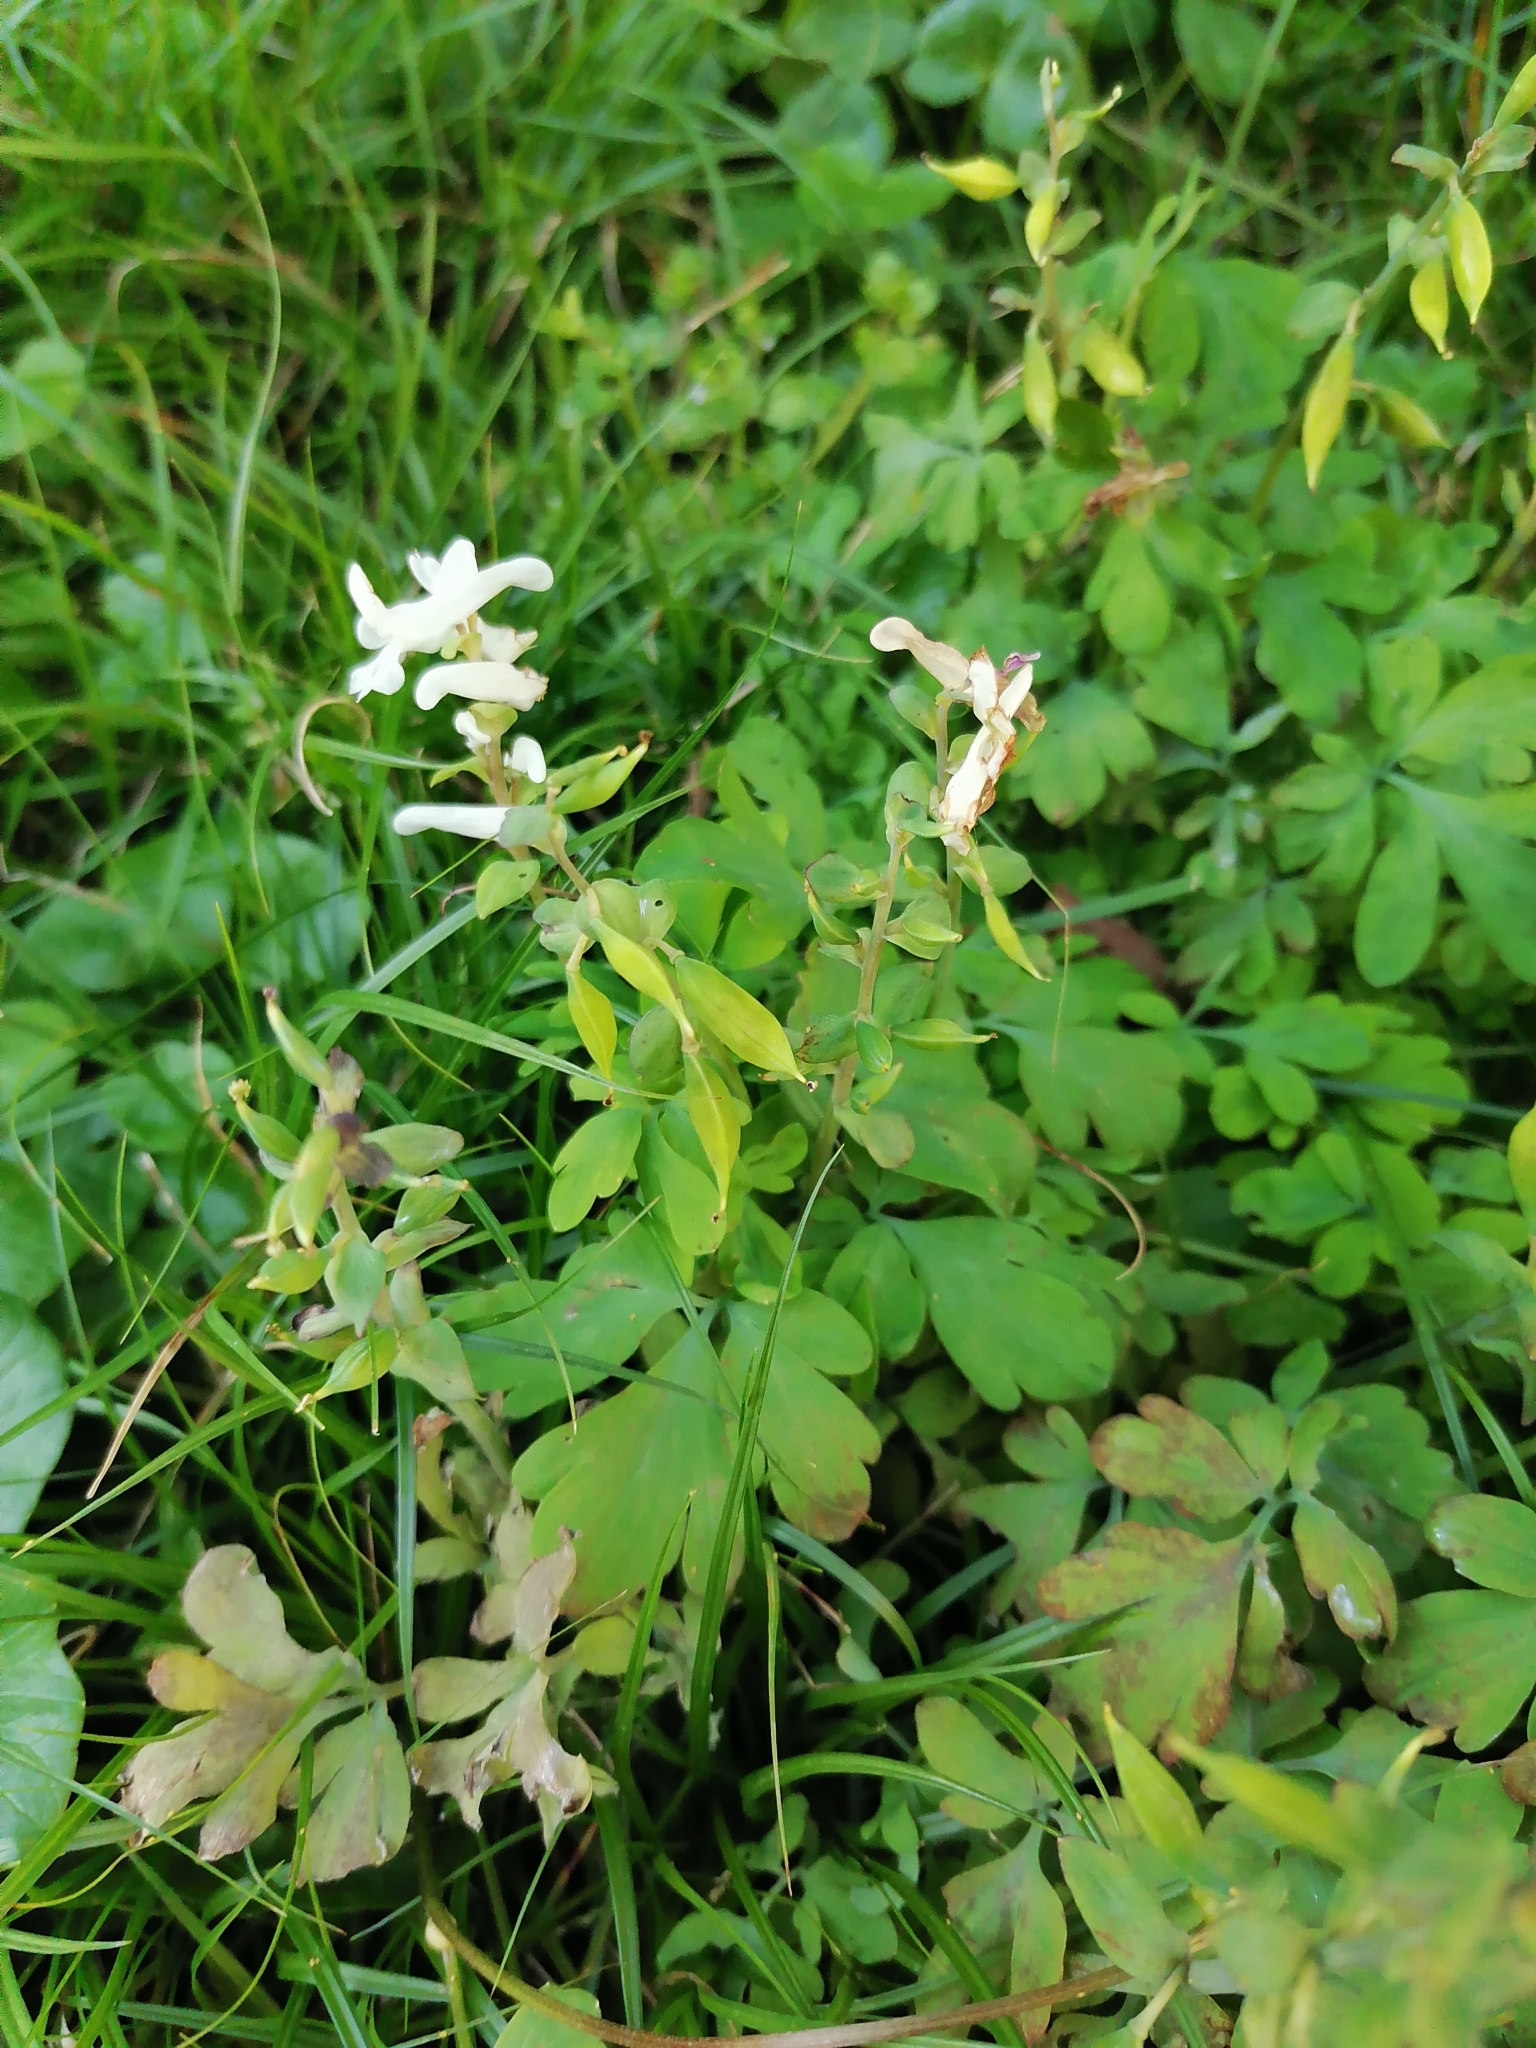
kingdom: Plantae
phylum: Tracheophyta
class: Magnoliopsida
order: Ranunculales
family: Papaveraceae
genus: Corydalis
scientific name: Corydalis cava
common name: Hollowroot
